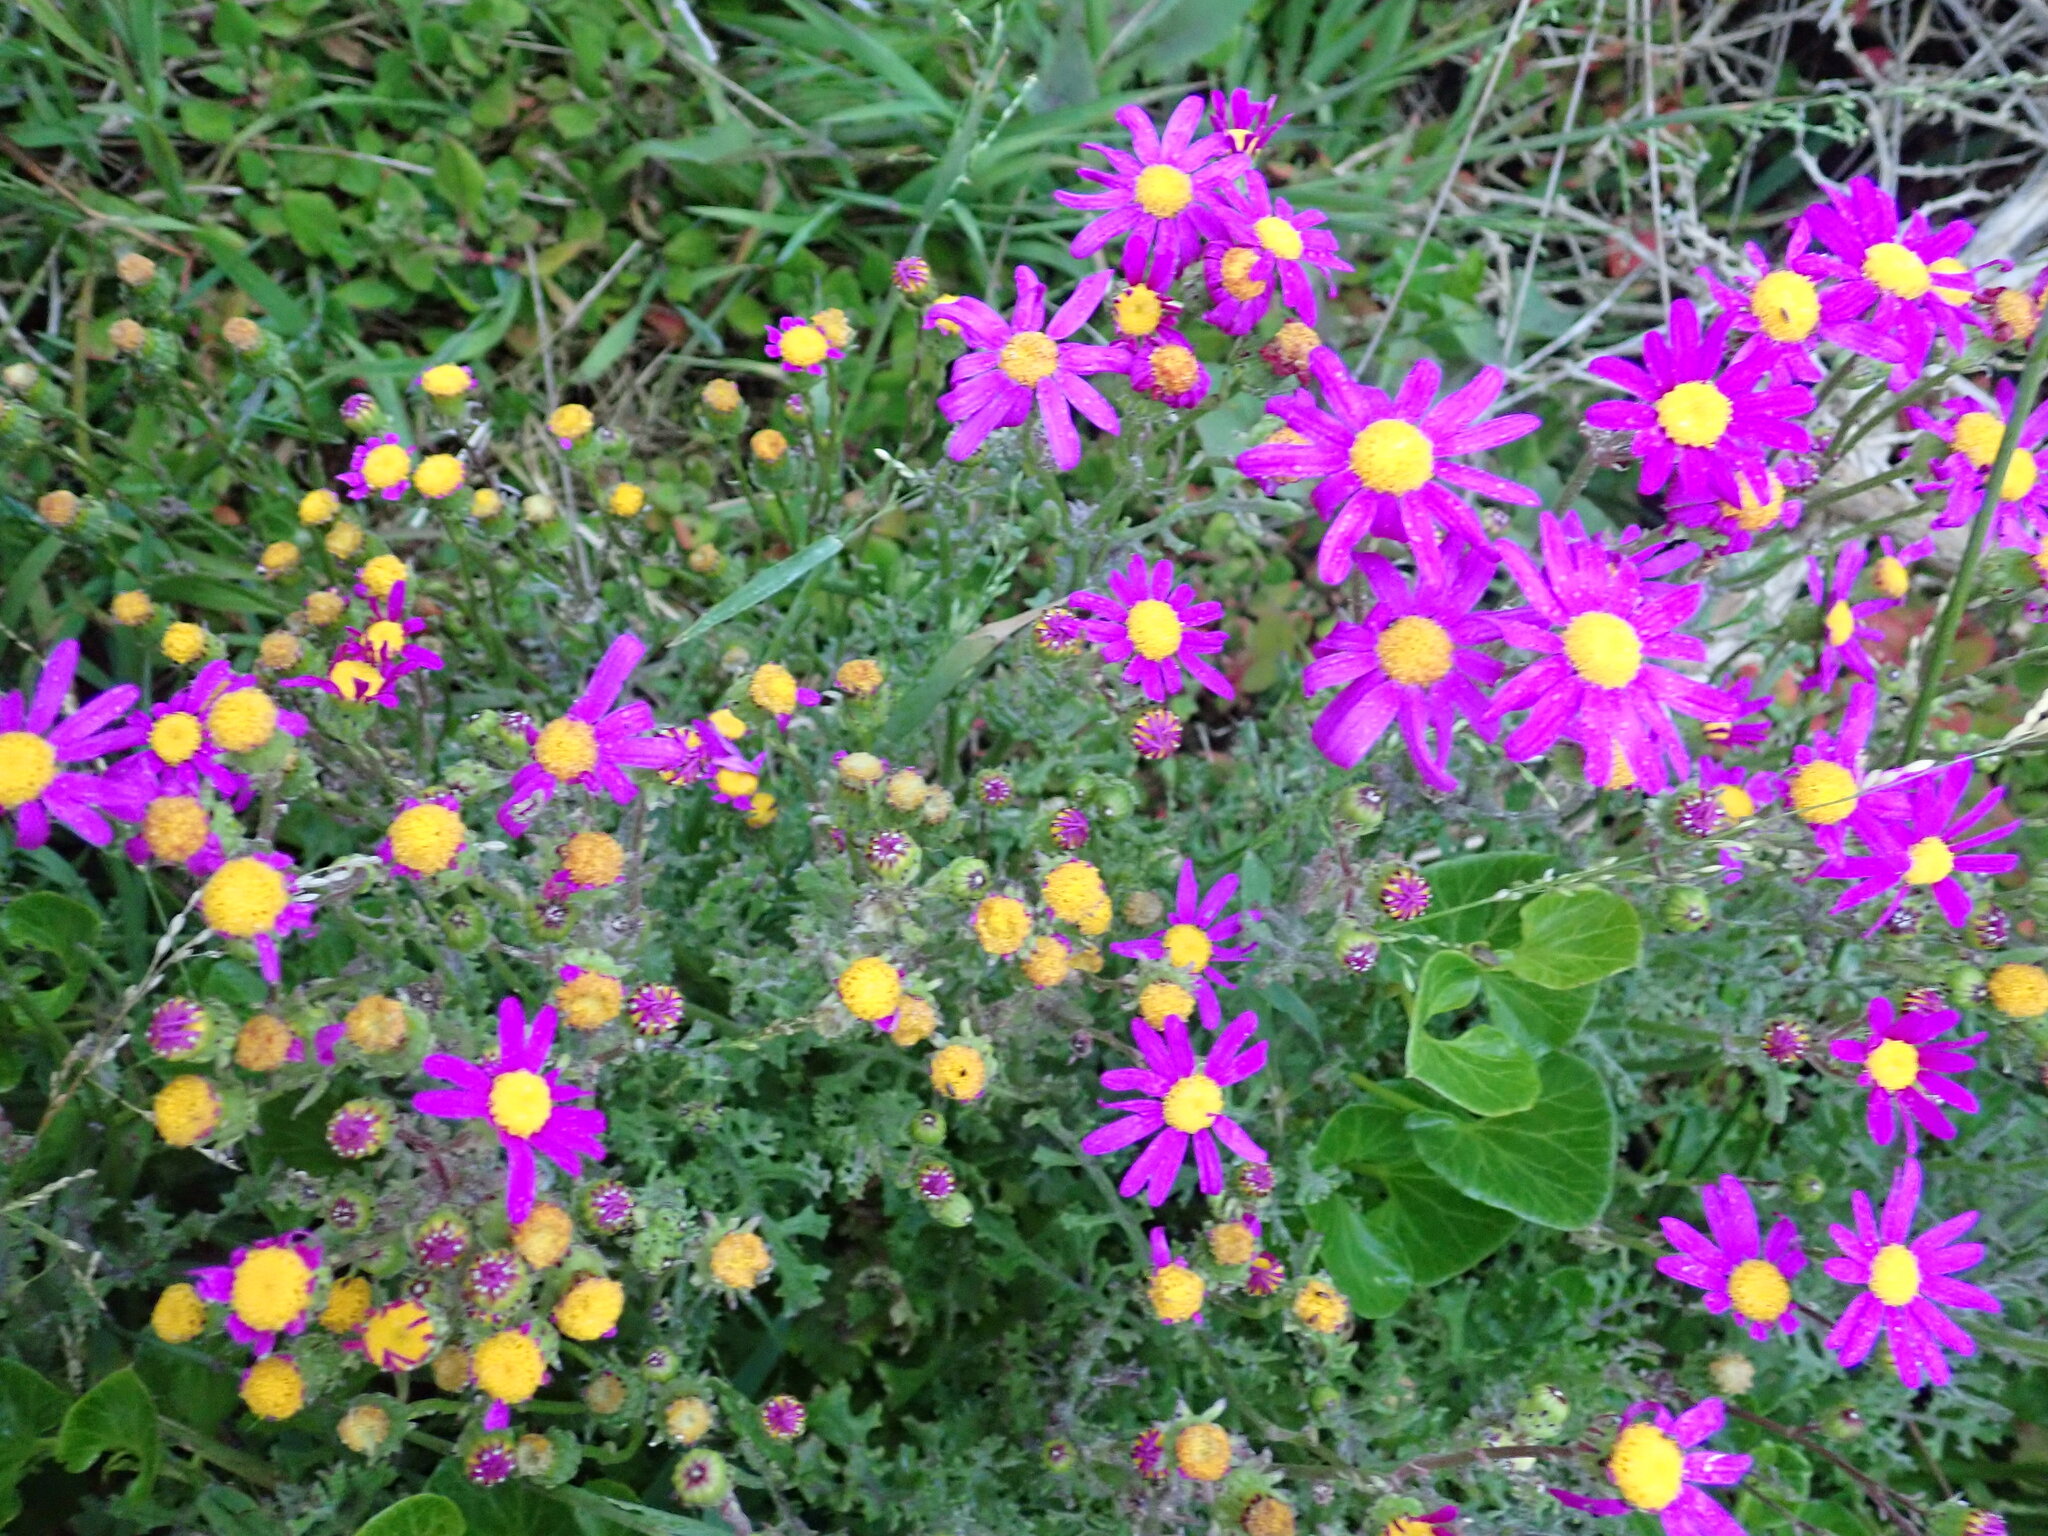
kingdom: Plantae
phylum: Tracheophyta
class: Magnoliopsida
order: Asterales
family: Asteraceae
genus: Senecio
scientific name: Senecio elegans
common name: Purple groundsel
